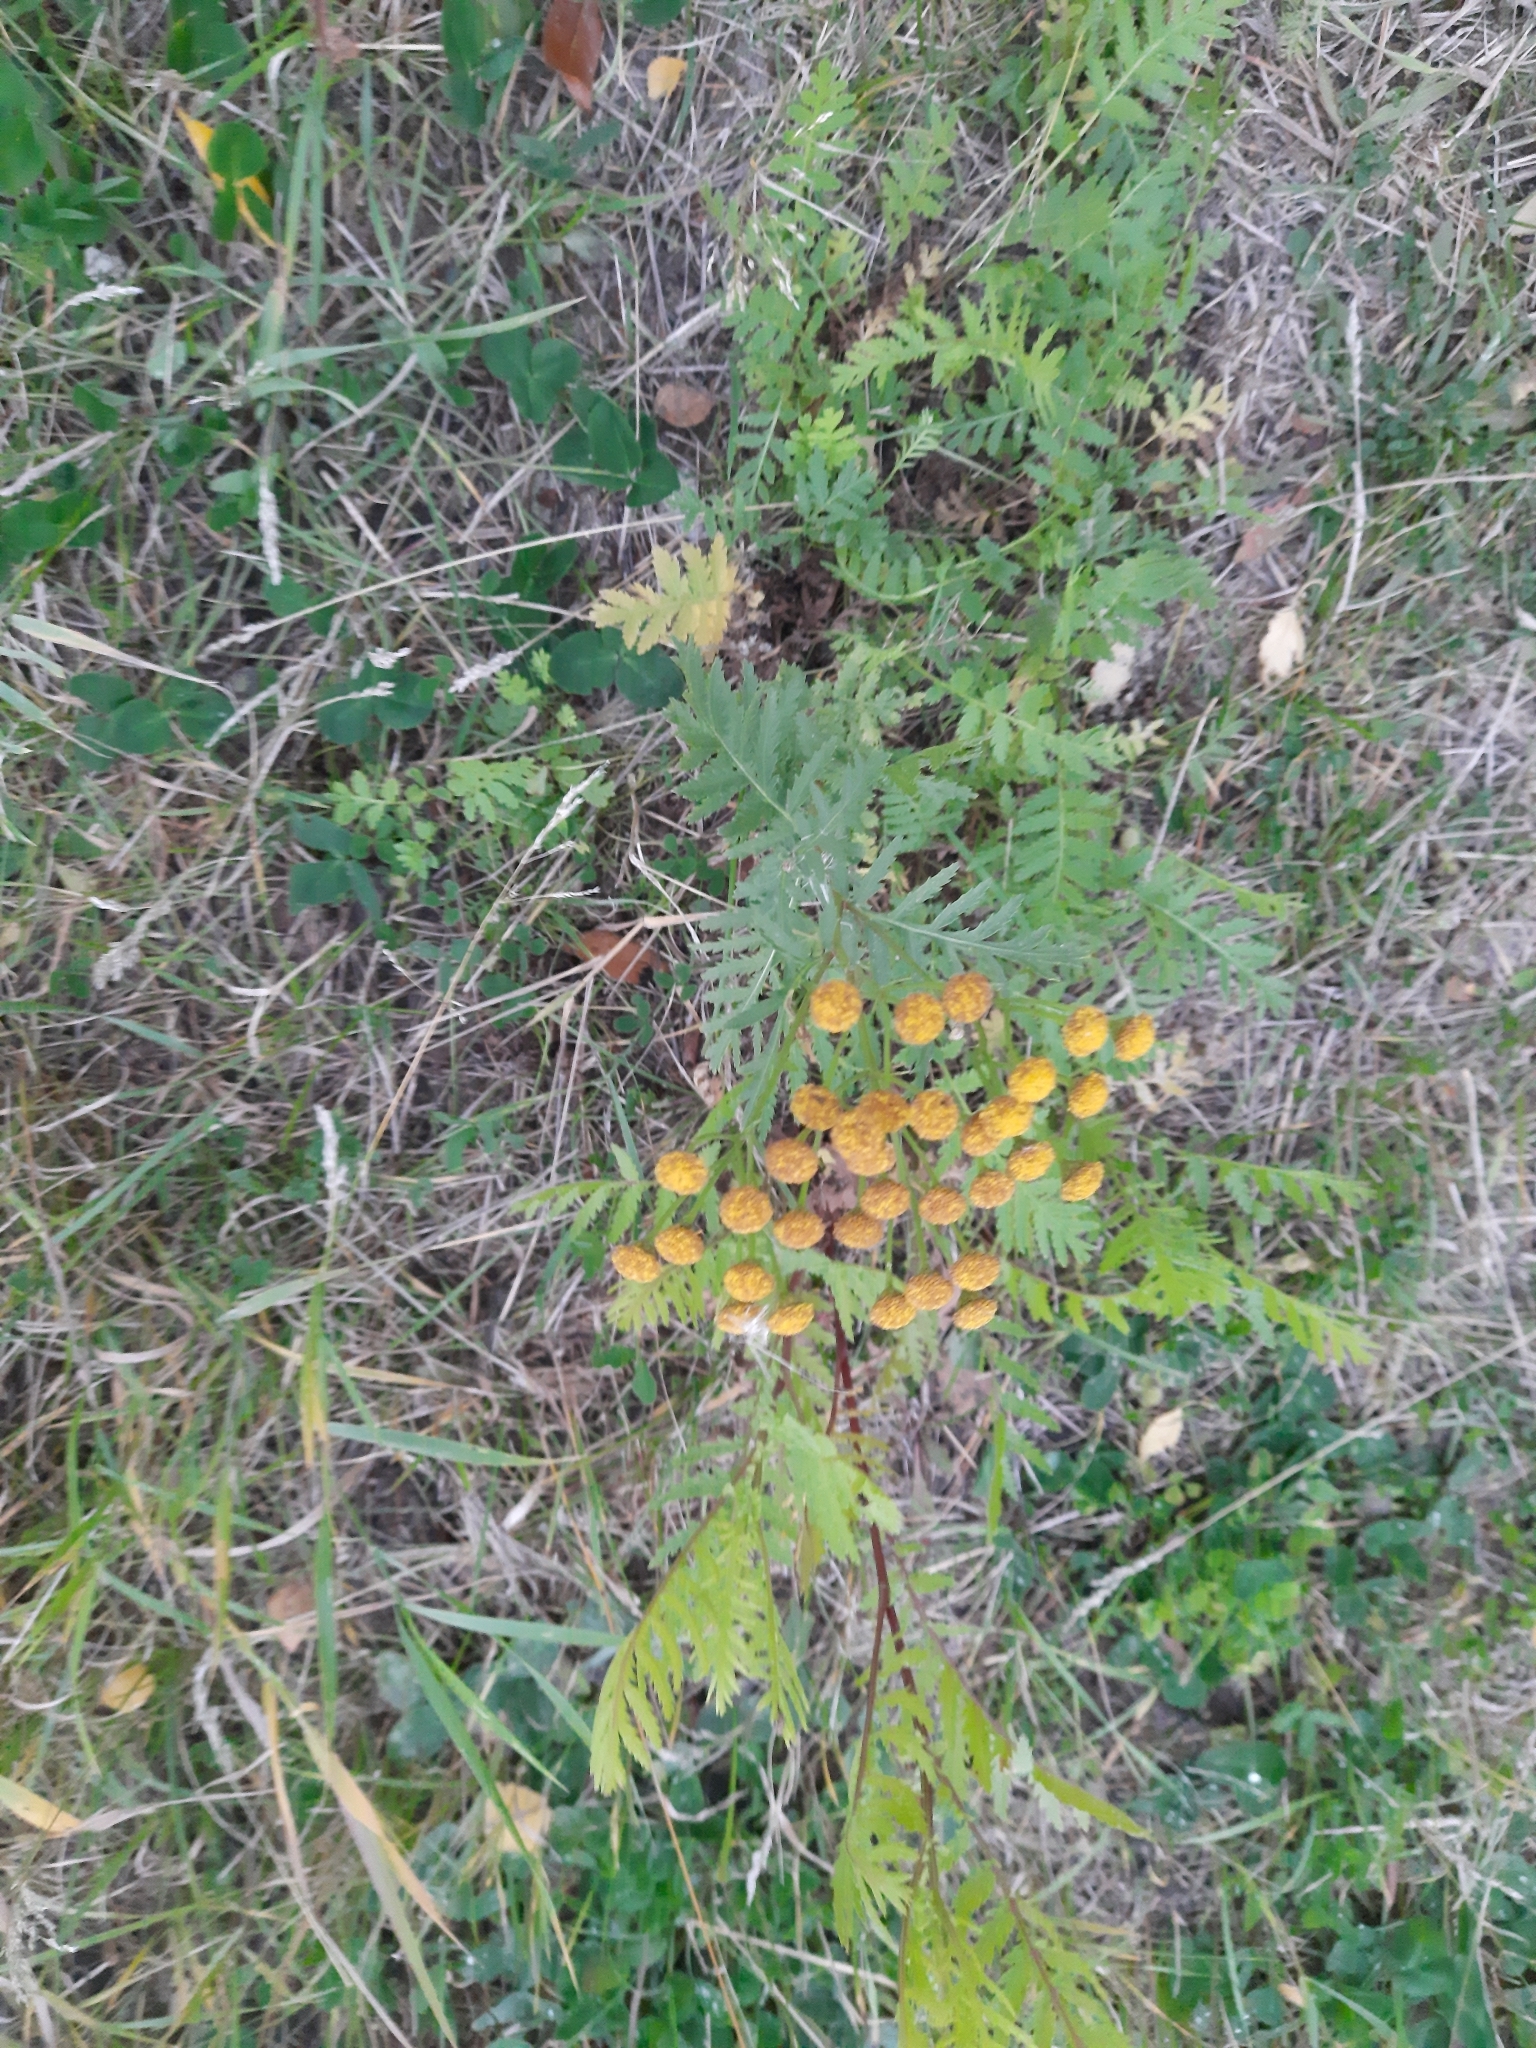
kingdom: Plantae
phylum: Tracheophyta
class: Magnoliopsida
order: Asterales
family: Asteraceae
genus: Tanacetum
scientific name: Tanacetum vulgare
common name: Common tansy
